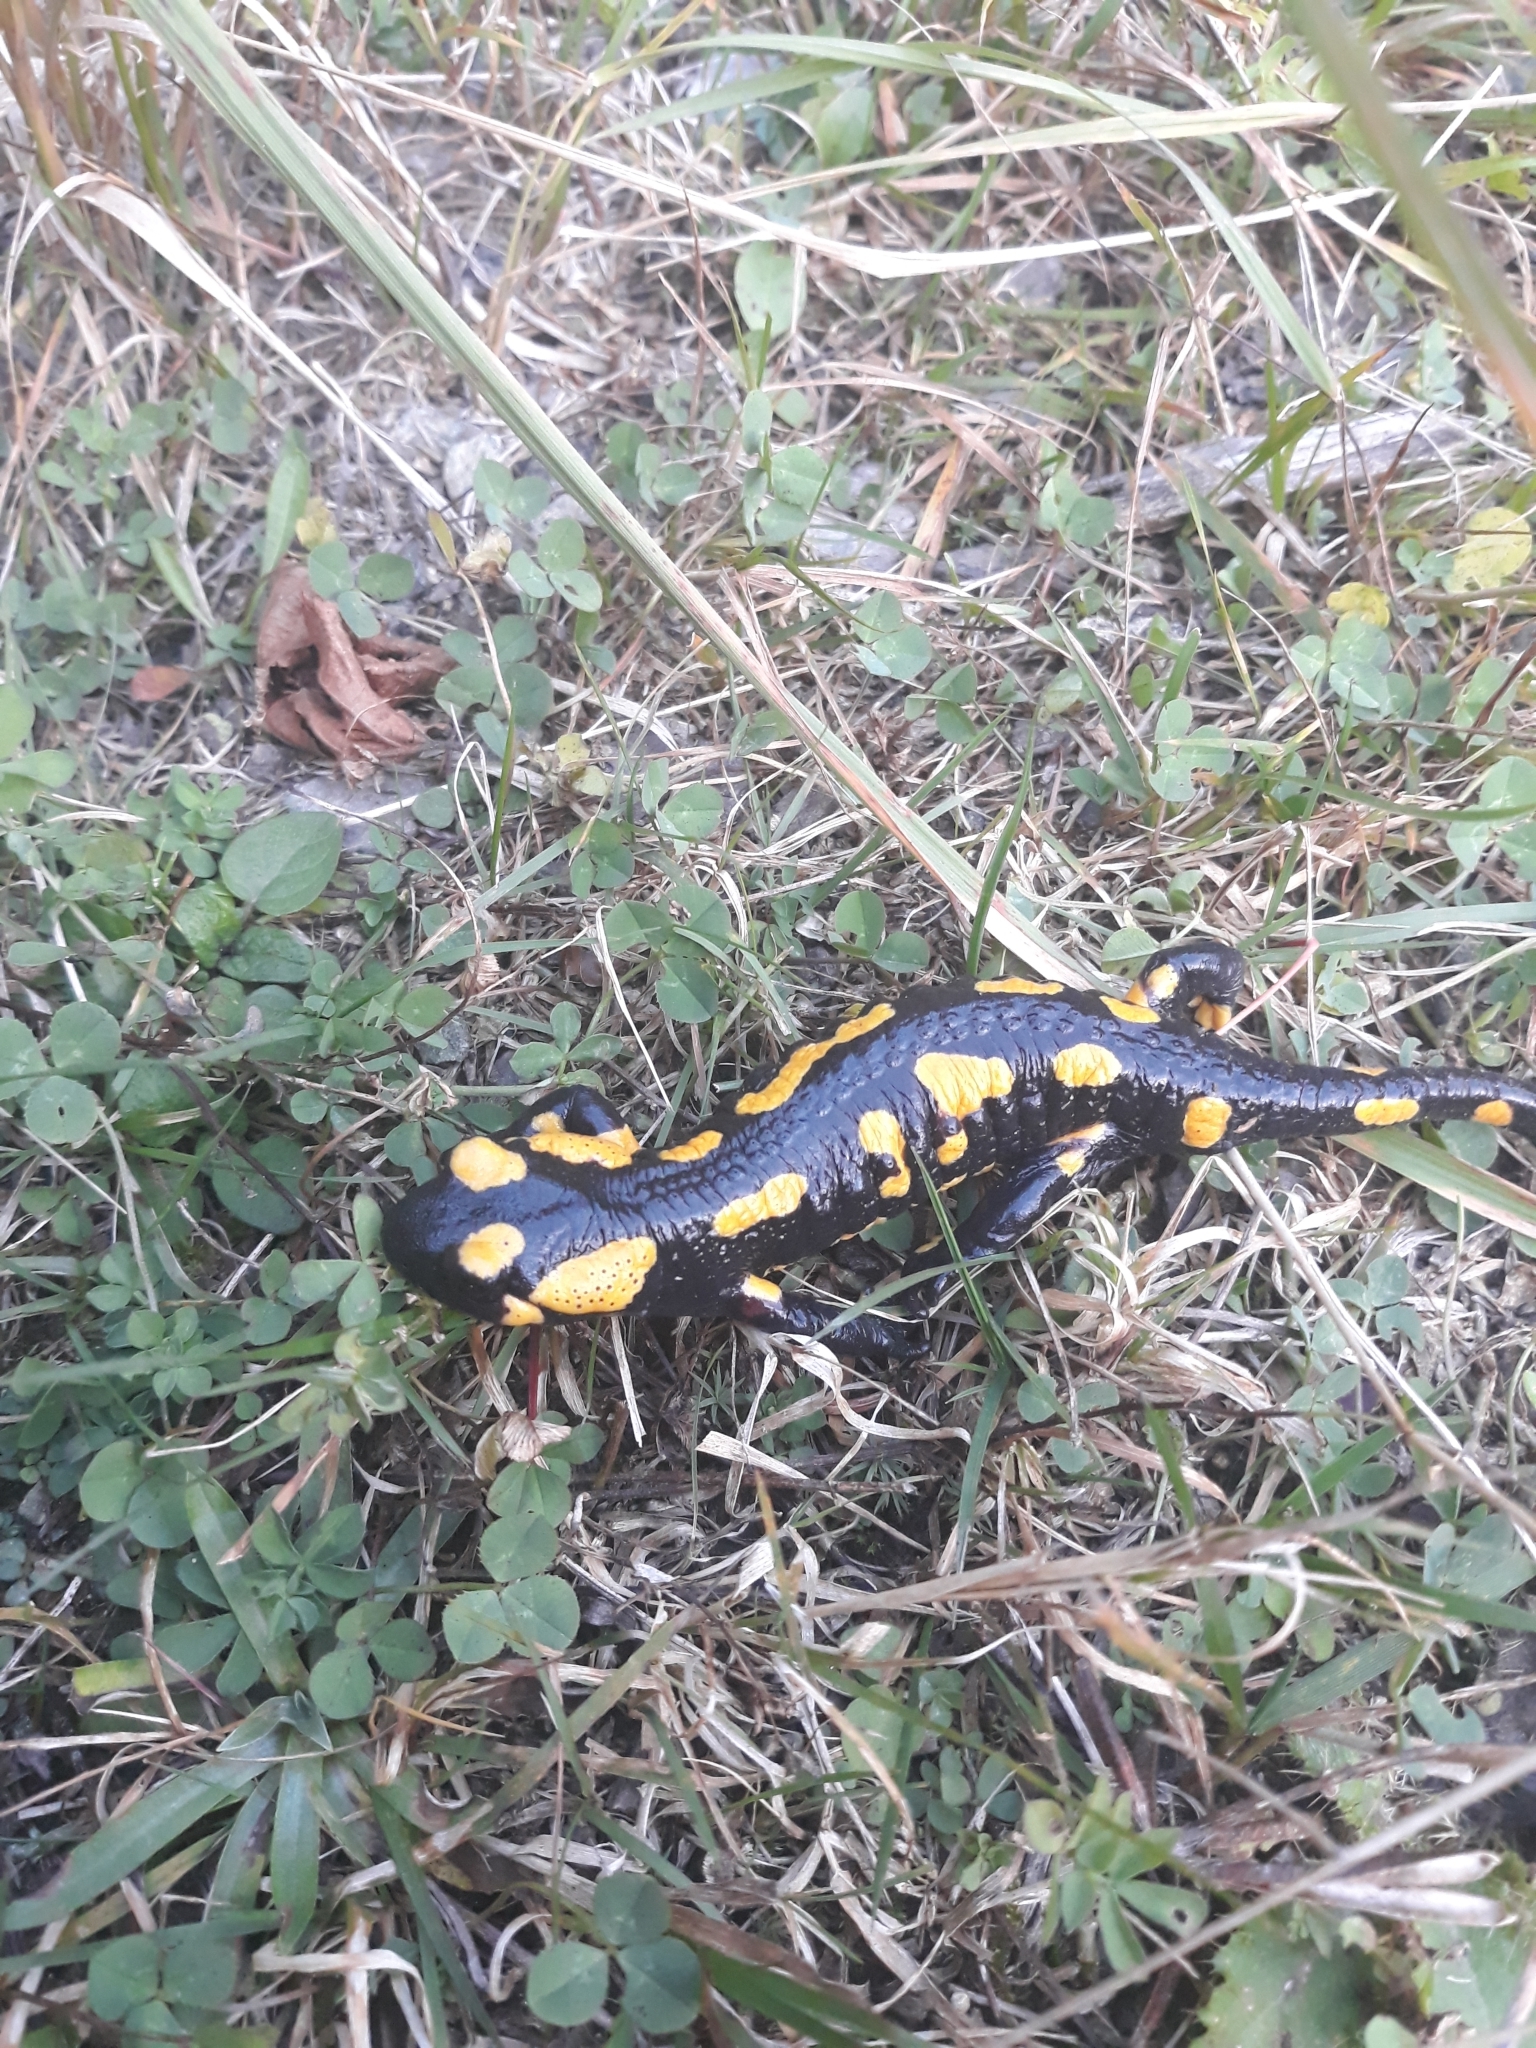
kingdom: Animalia
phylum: Chordata
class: Amphibia
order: Caudata
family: Salamandridae
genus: Salamandra
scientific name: Salamandra salamandra
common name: Fire salamander
